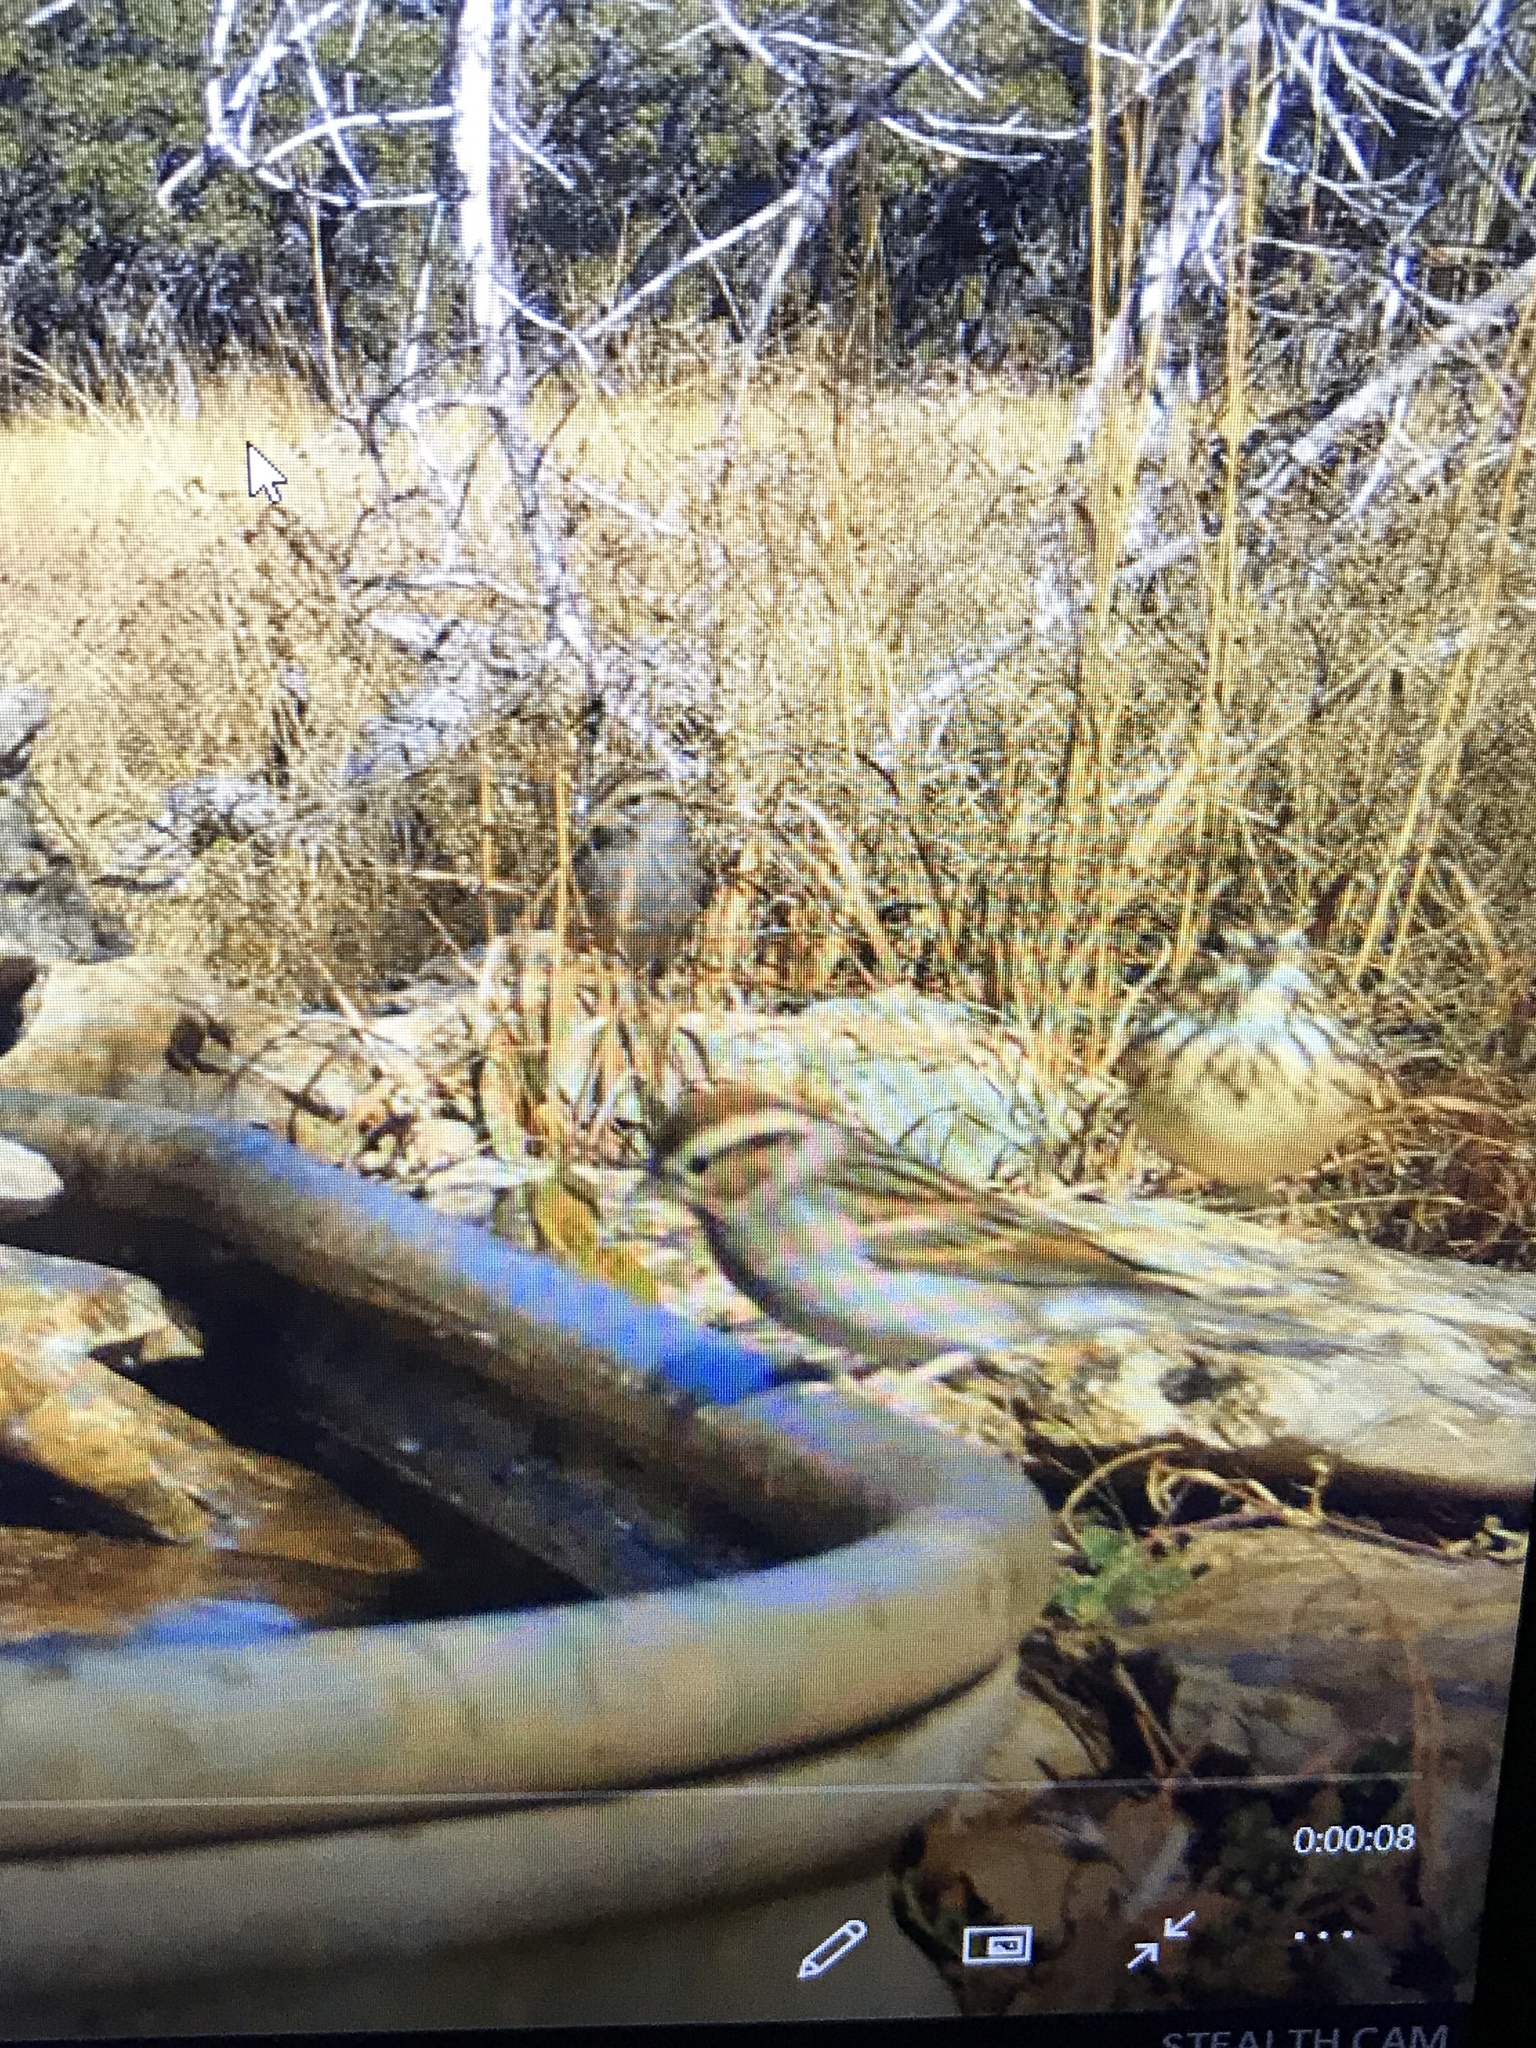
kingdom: Animalia
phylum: Chordata
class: Aves
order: Passeriformes
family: Passerellidae
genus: Spizella
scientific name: Spizella passerina
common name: Chipping sparrow
